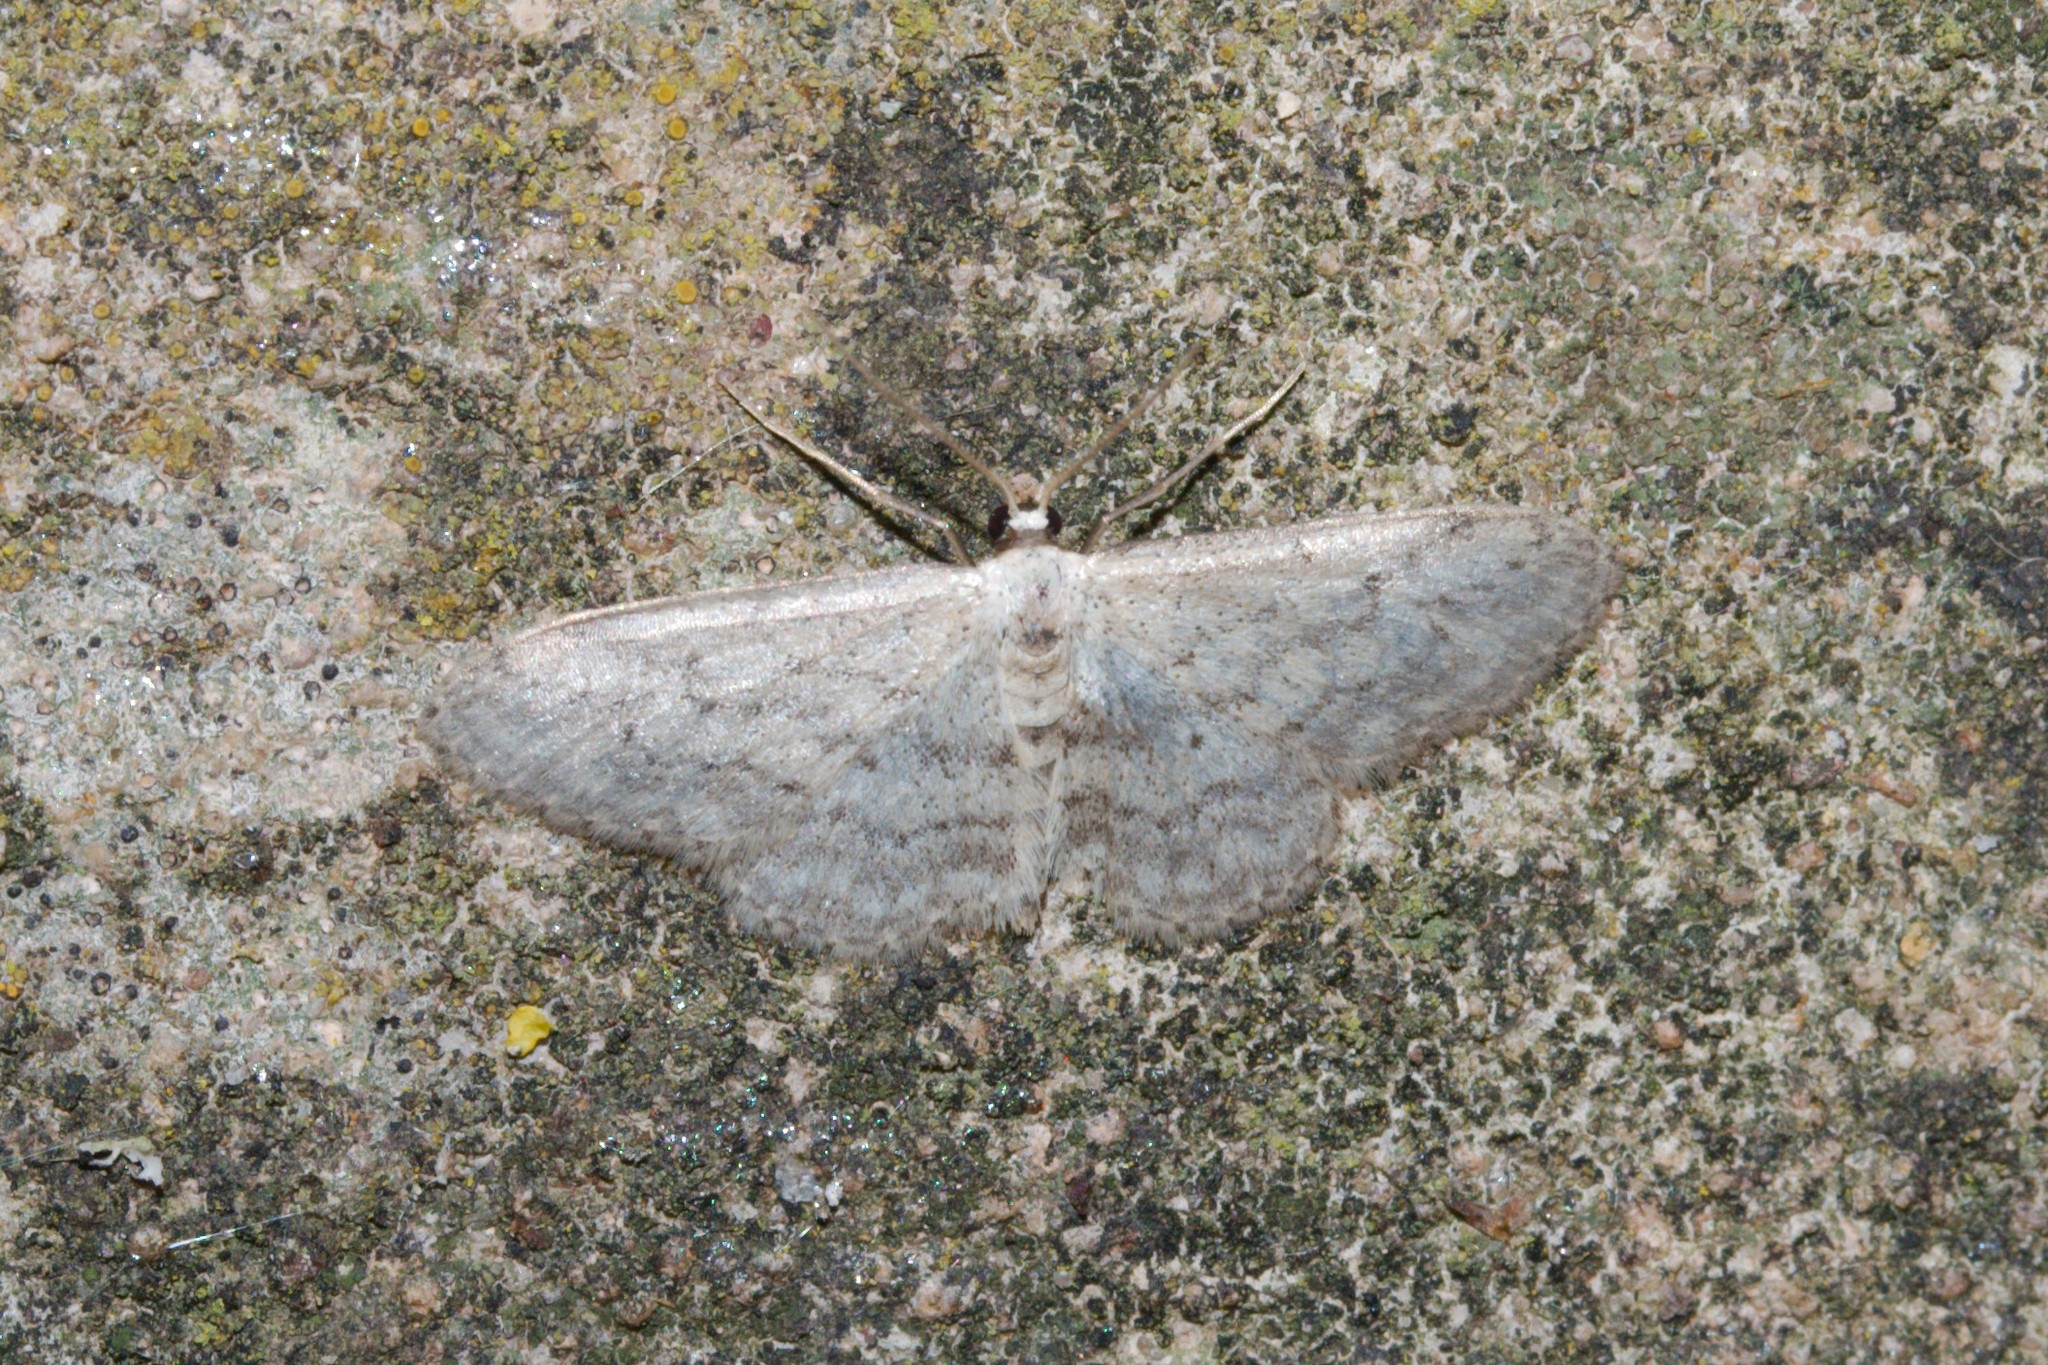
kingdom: Animalia
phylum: Arthropoda
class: Insecta
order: Lepidoptera
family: Geometridae
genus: Idaea
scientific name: Idaea seriata
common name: Small dusty wave
